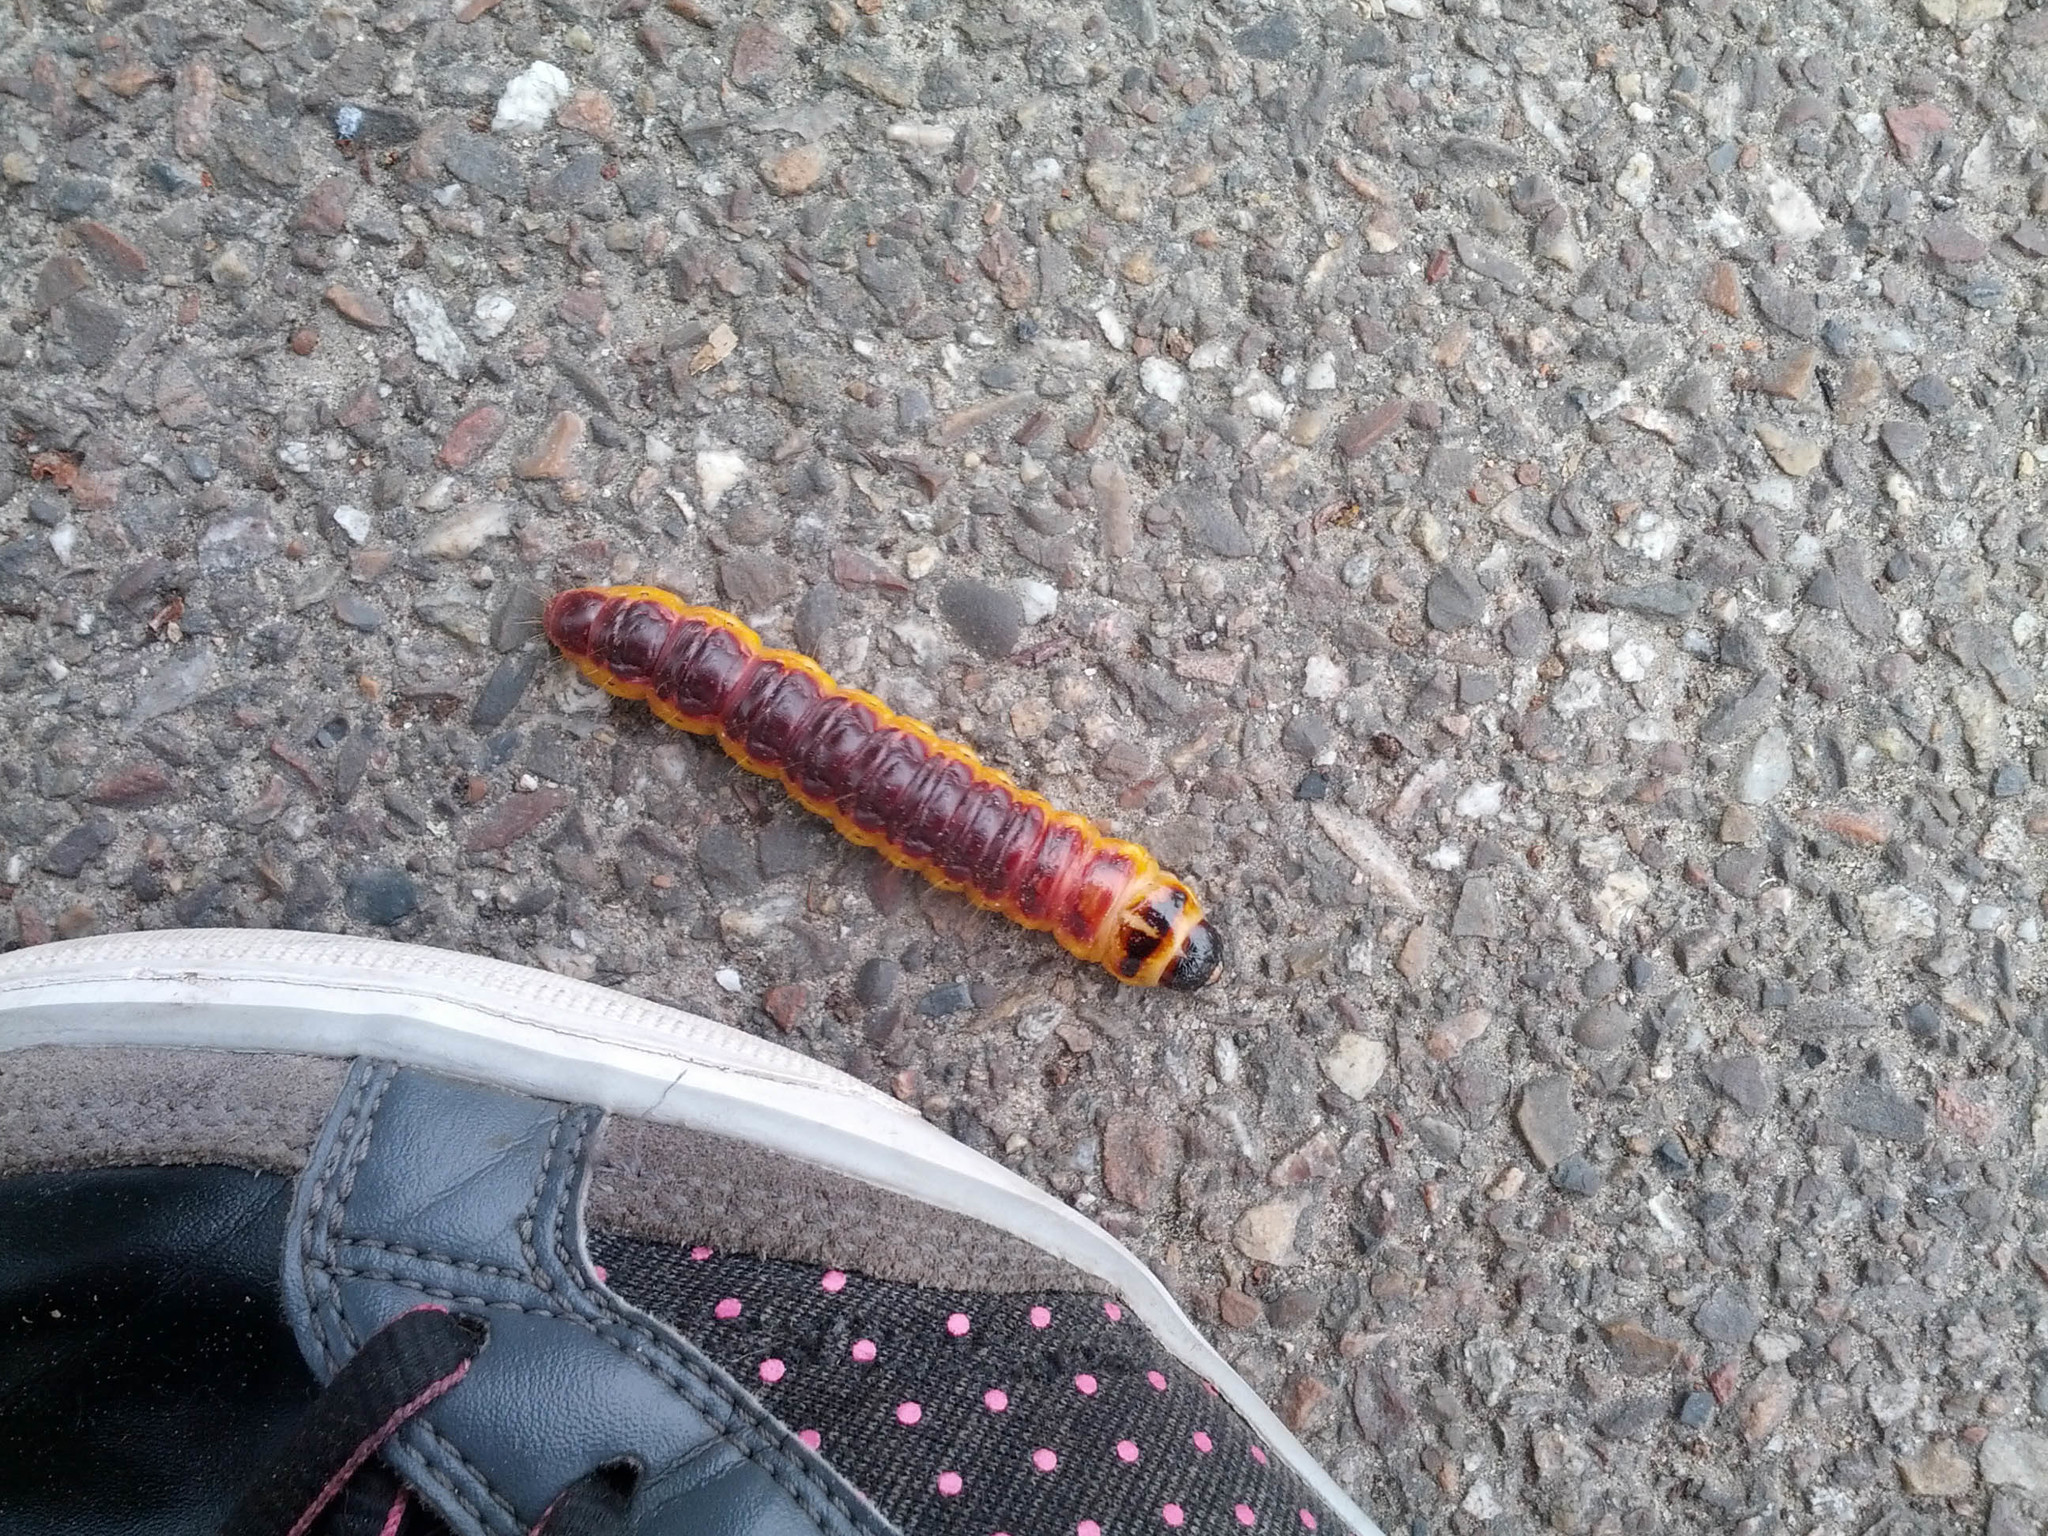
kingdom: Animalia
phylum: Arthropoda
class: Insecta
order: Lepidoptera
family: Cossidae
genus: Cossus
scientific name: Cossus cossus
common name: Goat moth
